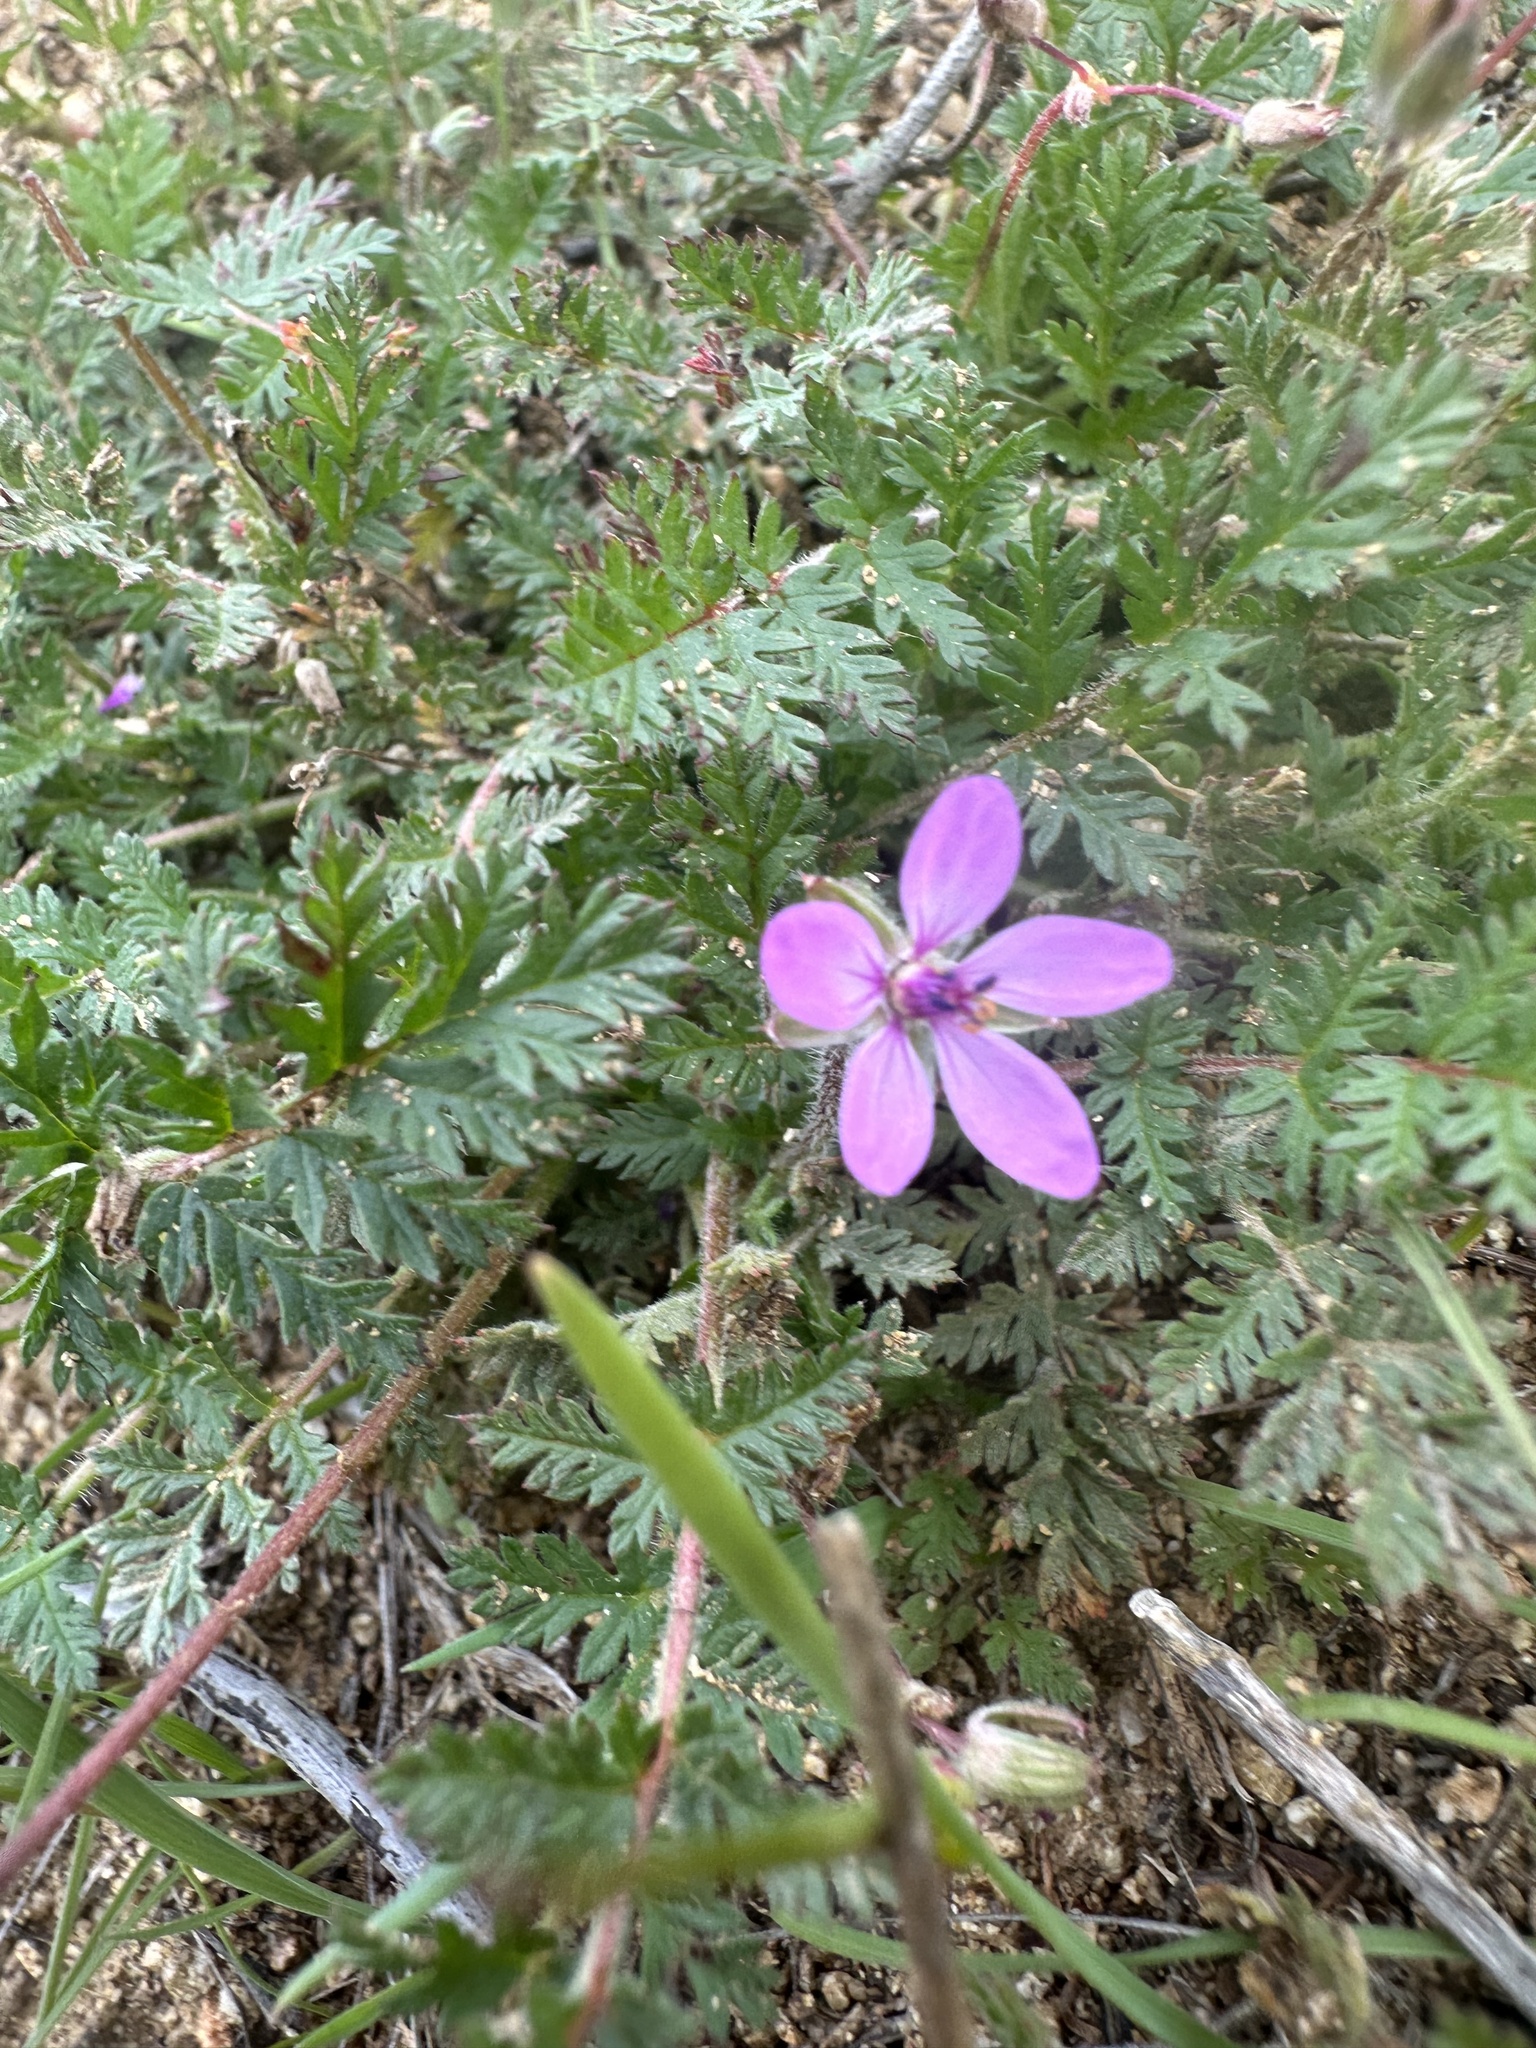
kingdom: Plantae
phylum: Tracheophyta
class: Magnoliopsida
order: Geraniales
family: Geraniaceae
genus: Erodium
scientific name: Erodium cicutarium
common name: Common stork's-bill
